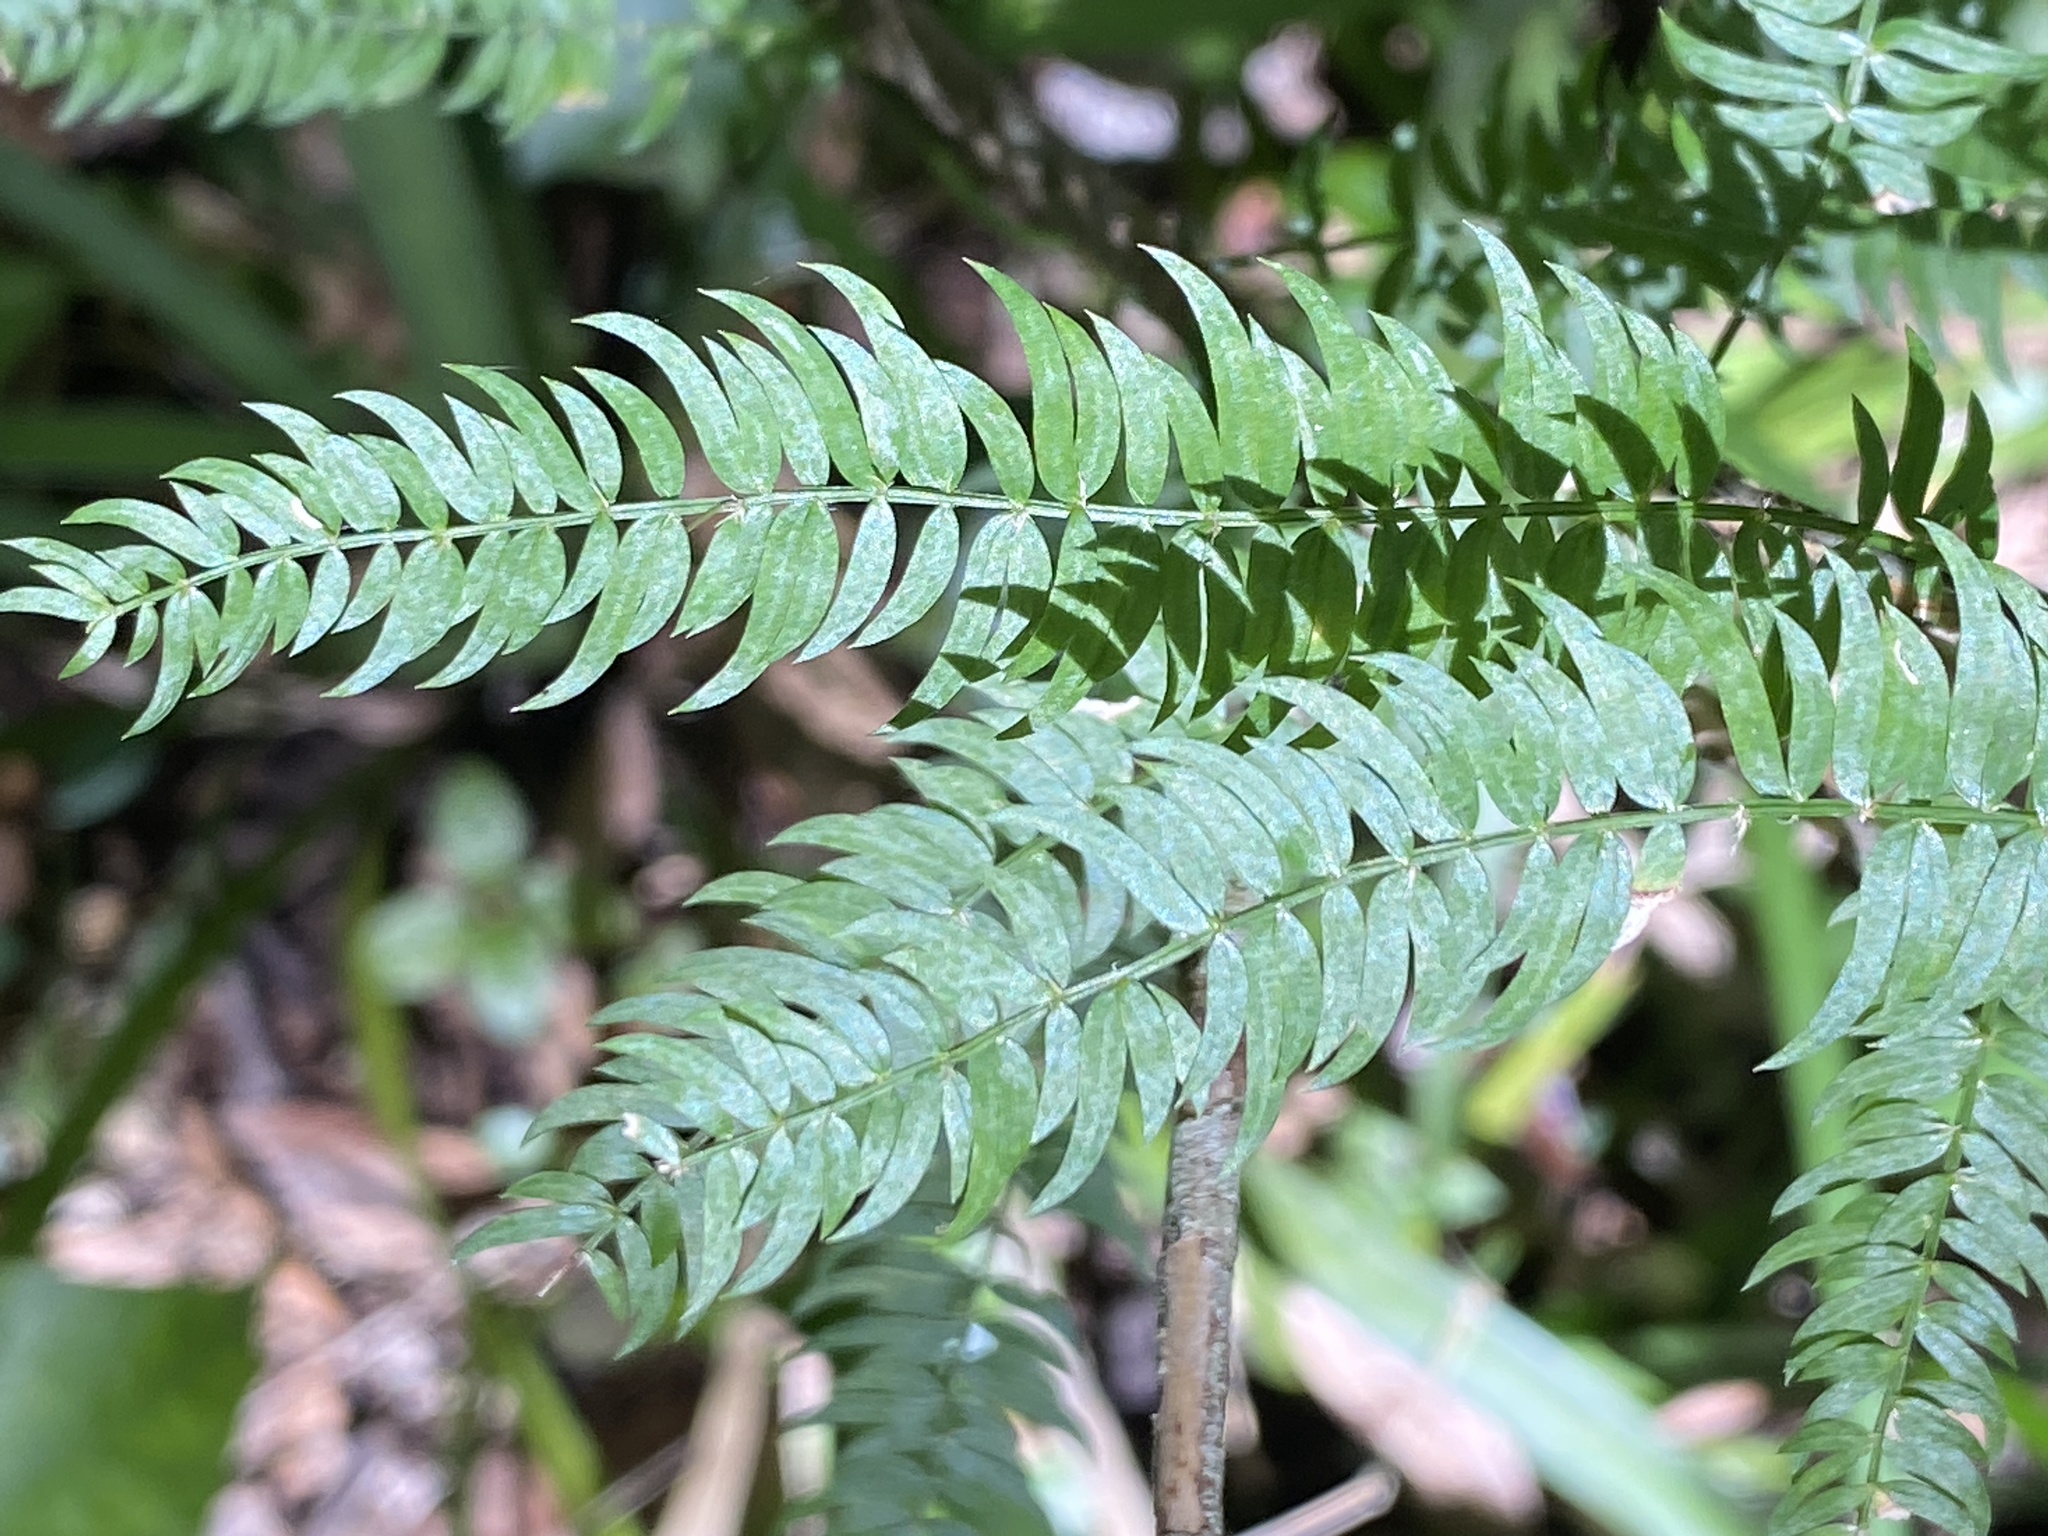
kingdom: Plantae
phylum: Tracheophyta
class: Liliopsida
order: Asparagales
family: Asparagaceae
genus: Asparagus
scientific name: Asparagus scandens
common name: Asparagus-fern
